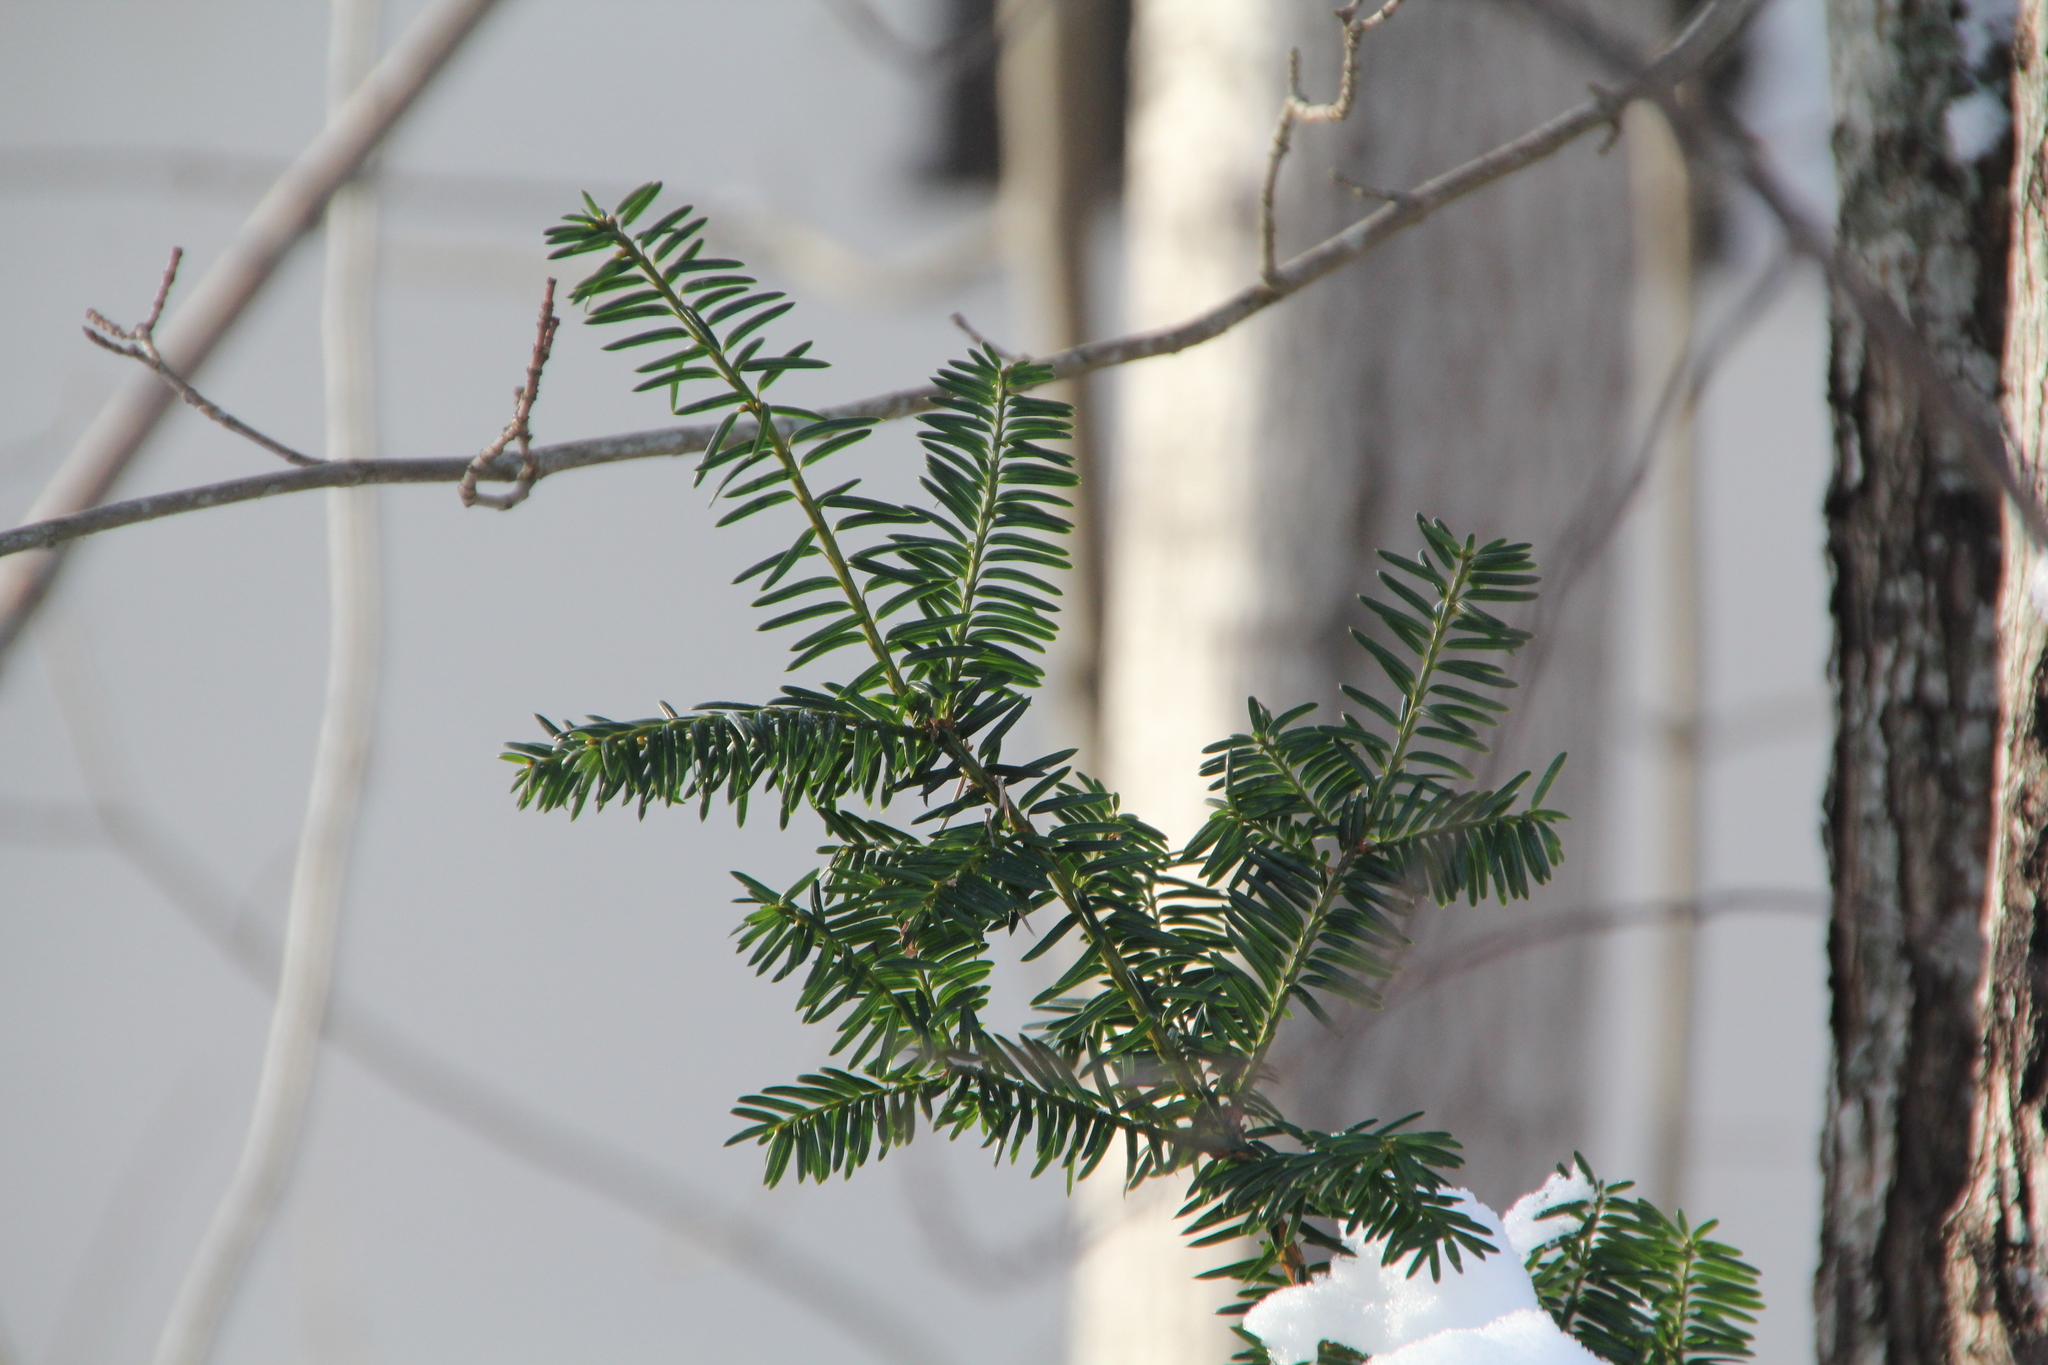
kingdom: Plantae
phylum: Tracheophyta
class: Pinopsida
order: Pinales
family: Taxaceae
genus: Taxus
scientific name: Taxus baccata
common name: Yew
